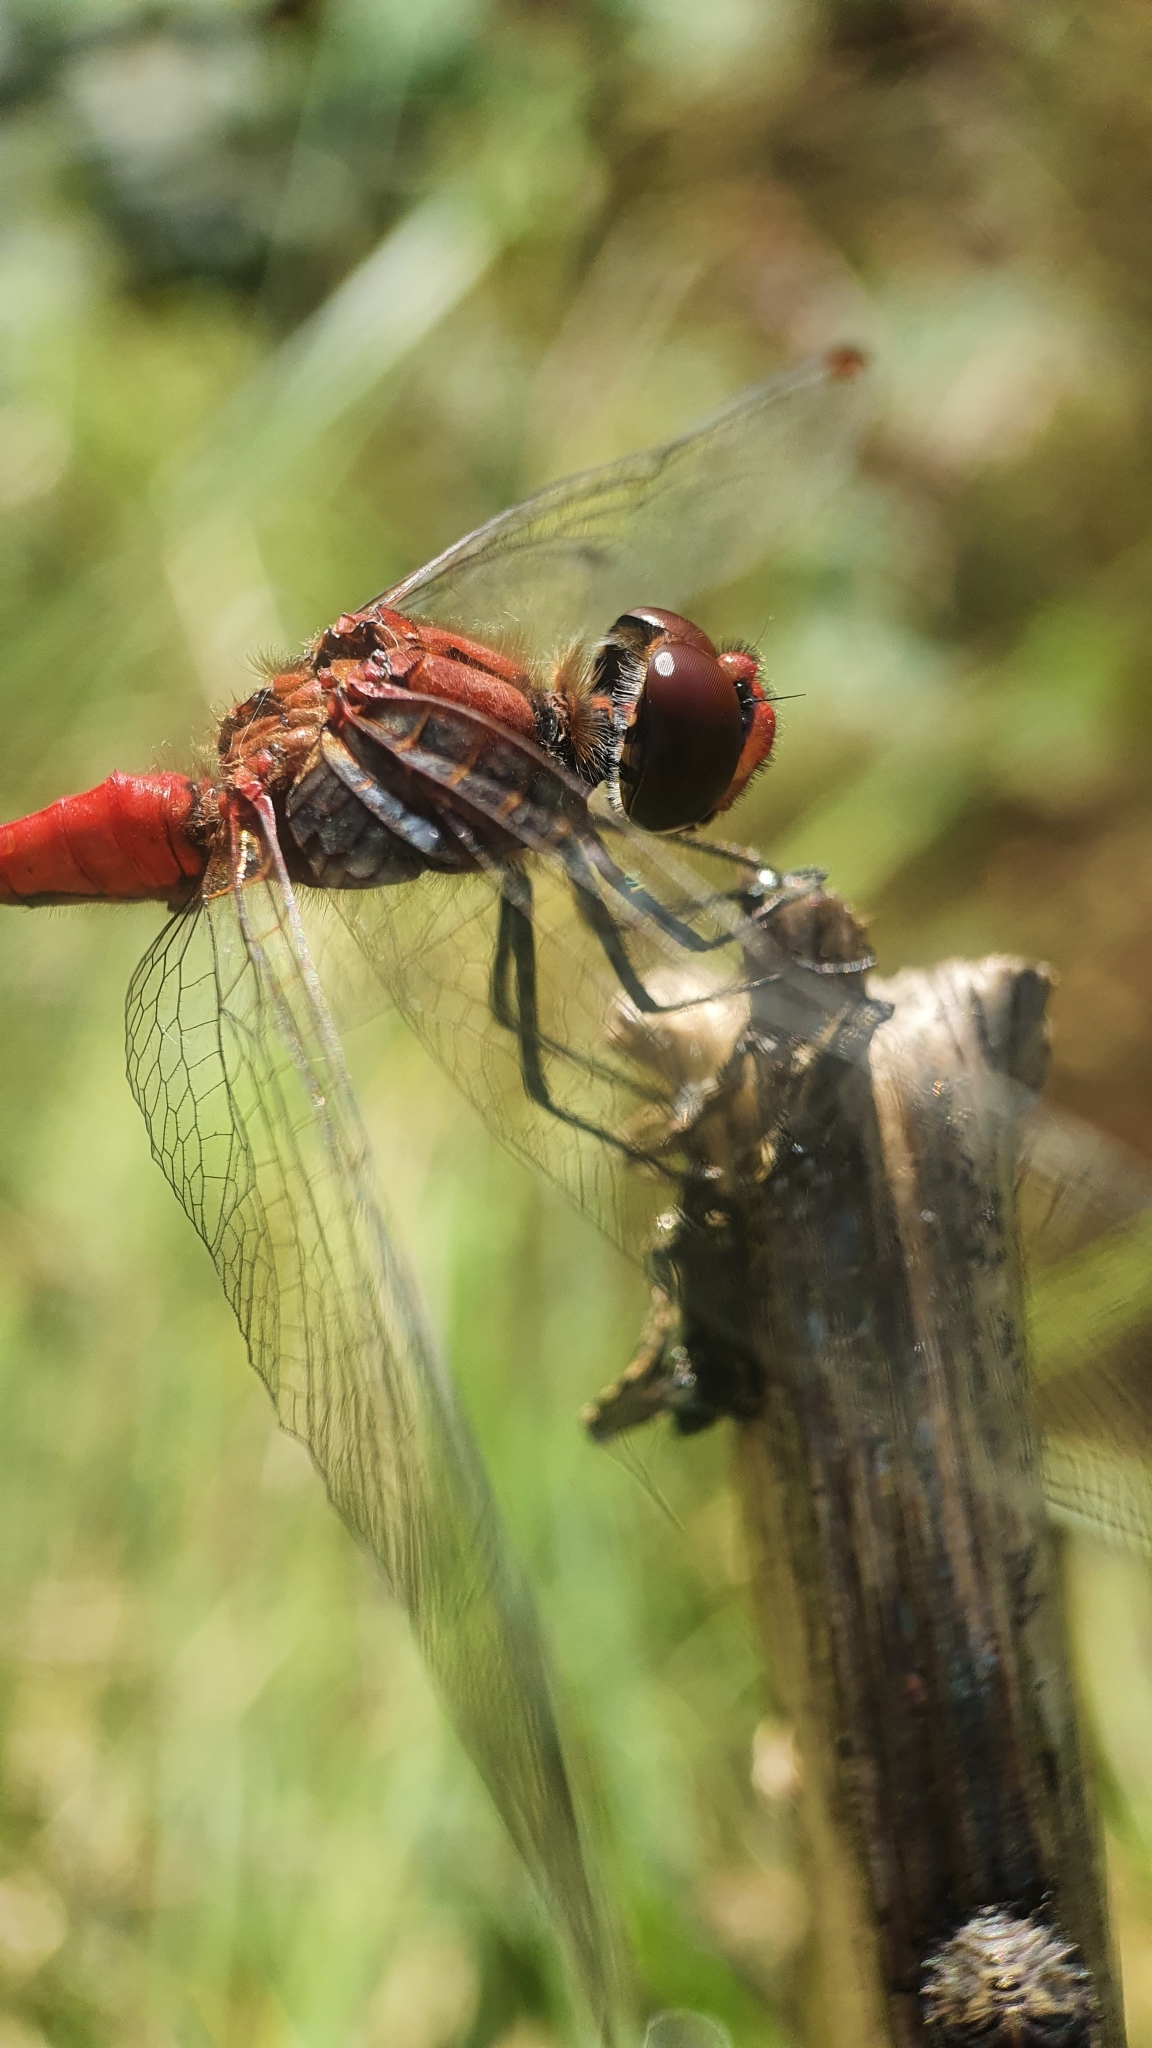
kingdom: Animalia
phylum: Arthropoda
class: Insecta
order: Odonata
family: Libellulidae
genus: Sympetrum
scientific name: Sympetrum sanguineum
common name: Ruddy darter
